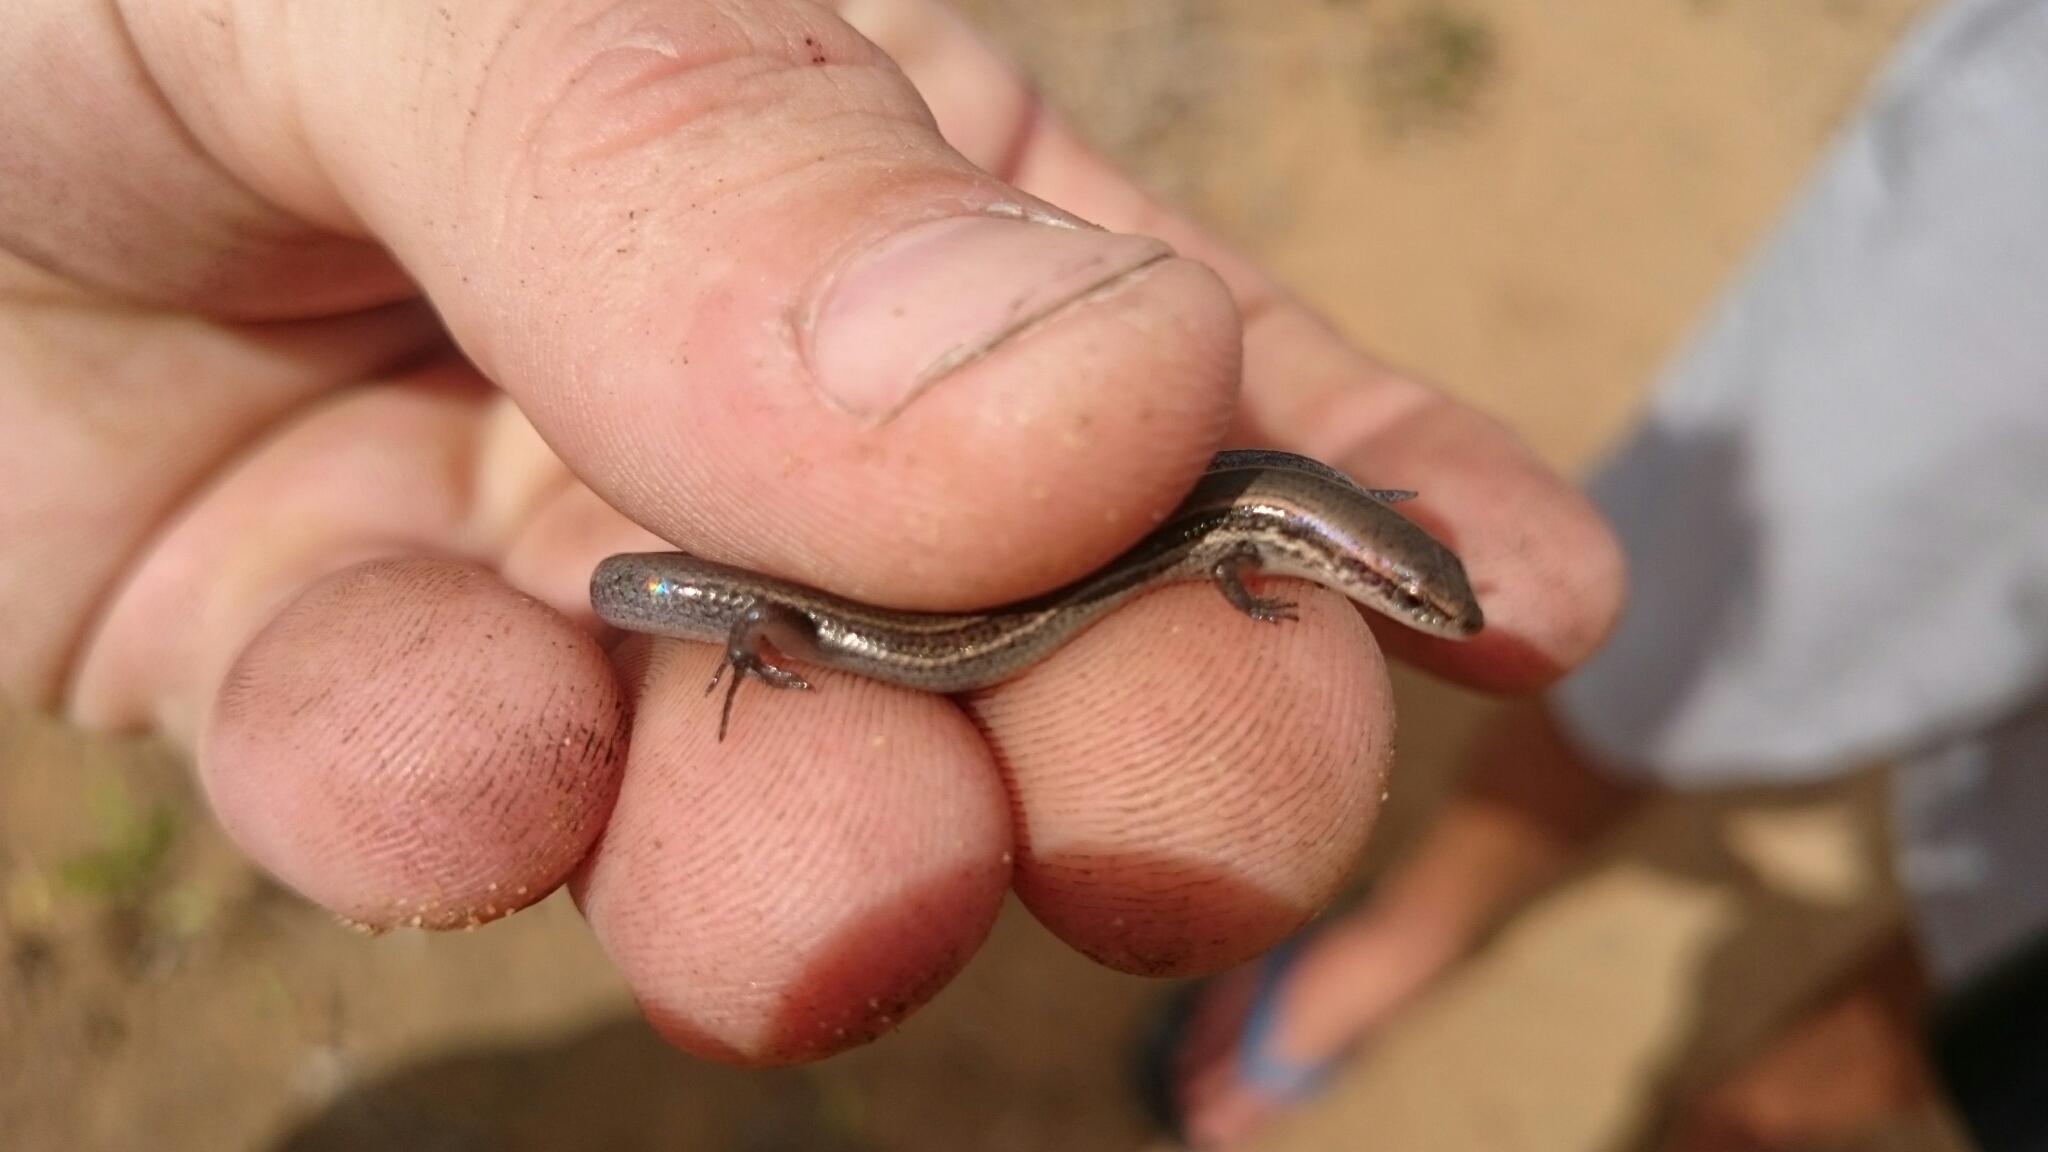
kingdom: Animalia
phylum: Chordata
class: Squamata
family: Scincidae
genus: Panaspis
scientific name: Panaspis wahlbergii
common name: Angolan snake-eyed skink
